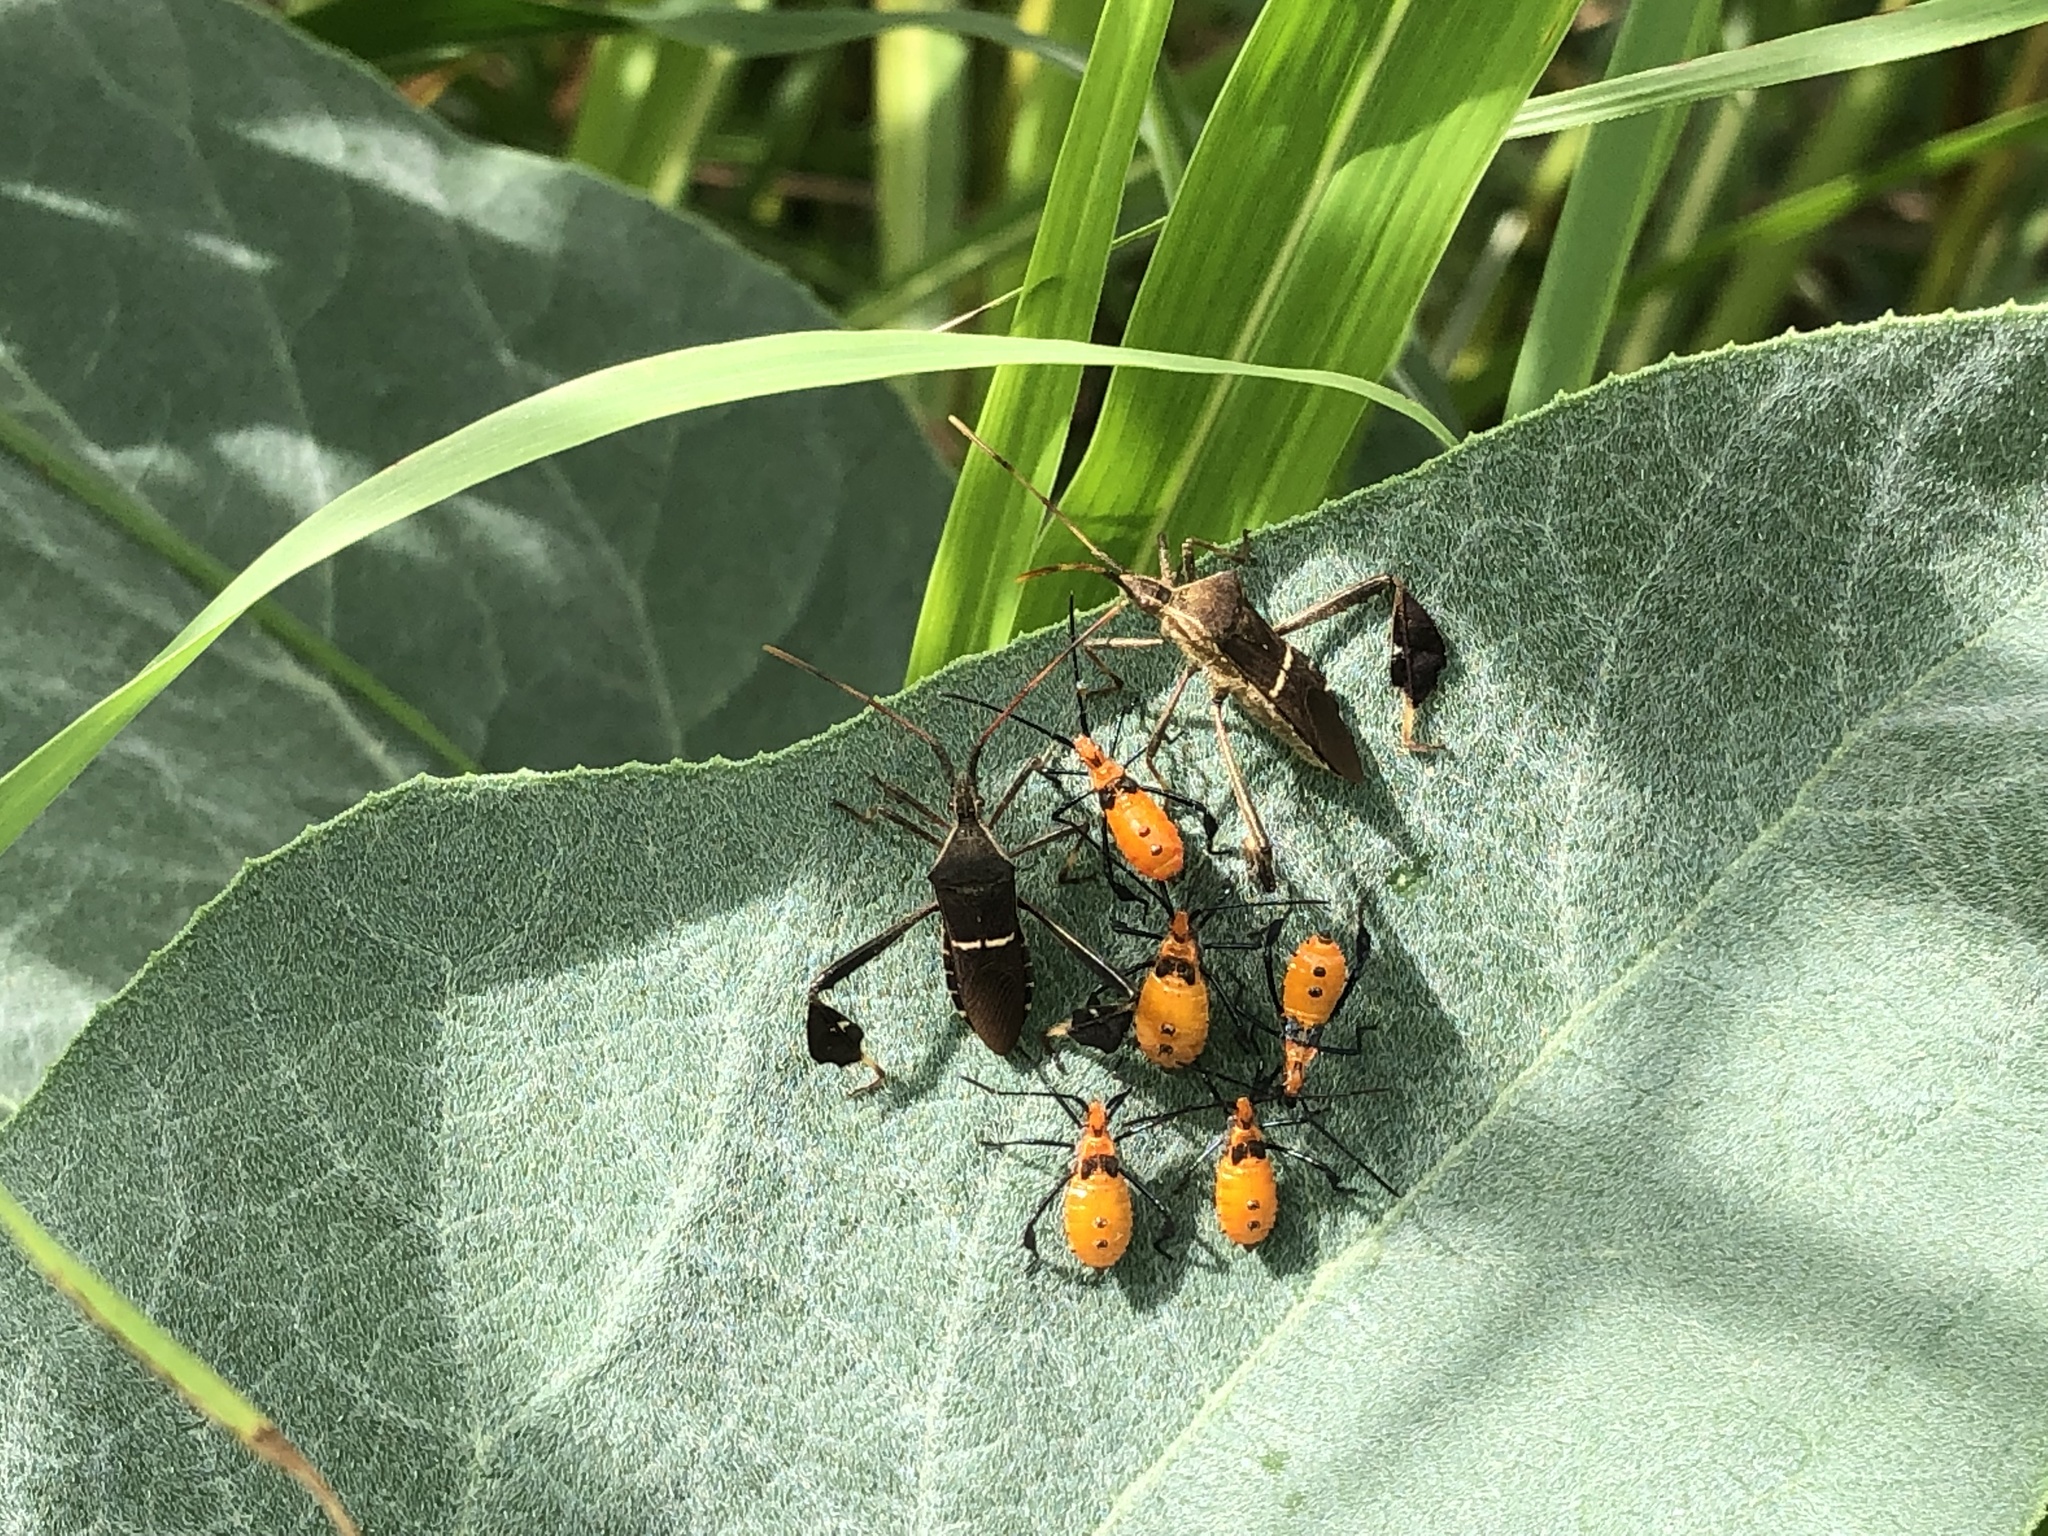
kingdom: Animalia
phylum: Arthropoda
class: Insecta
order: Hemiptera
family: Coreidae
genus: Leptoglossus
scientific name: Leptoglossus phyllopus
